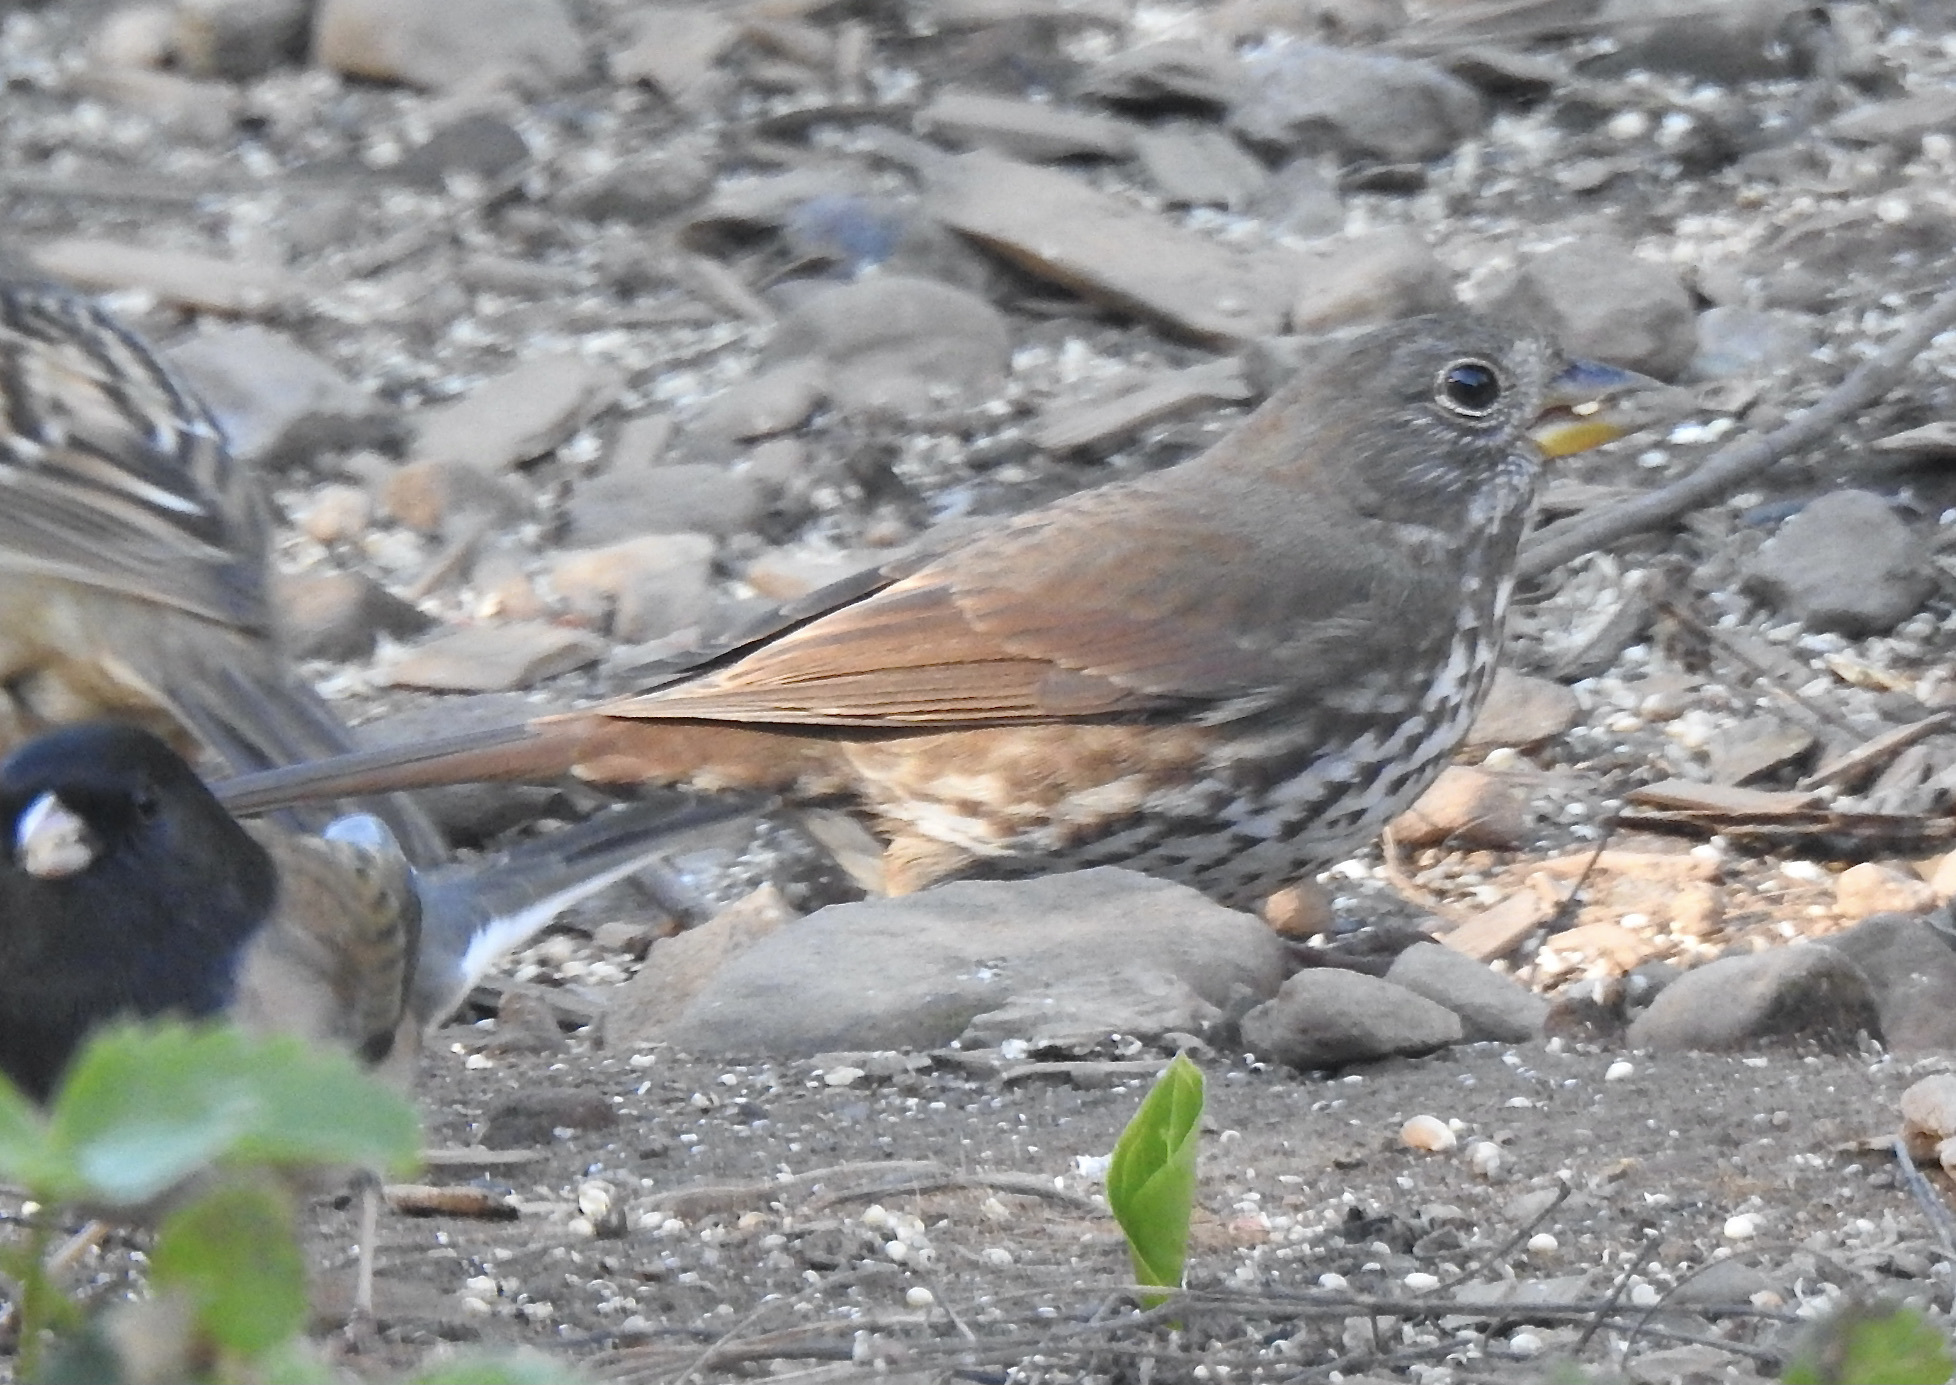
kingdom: Animalia
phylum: Chordata
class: Aves
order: Passeriformes
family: Passerellidae
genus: Passerella
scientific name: Passerella iliaca
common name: Fox sparrow
